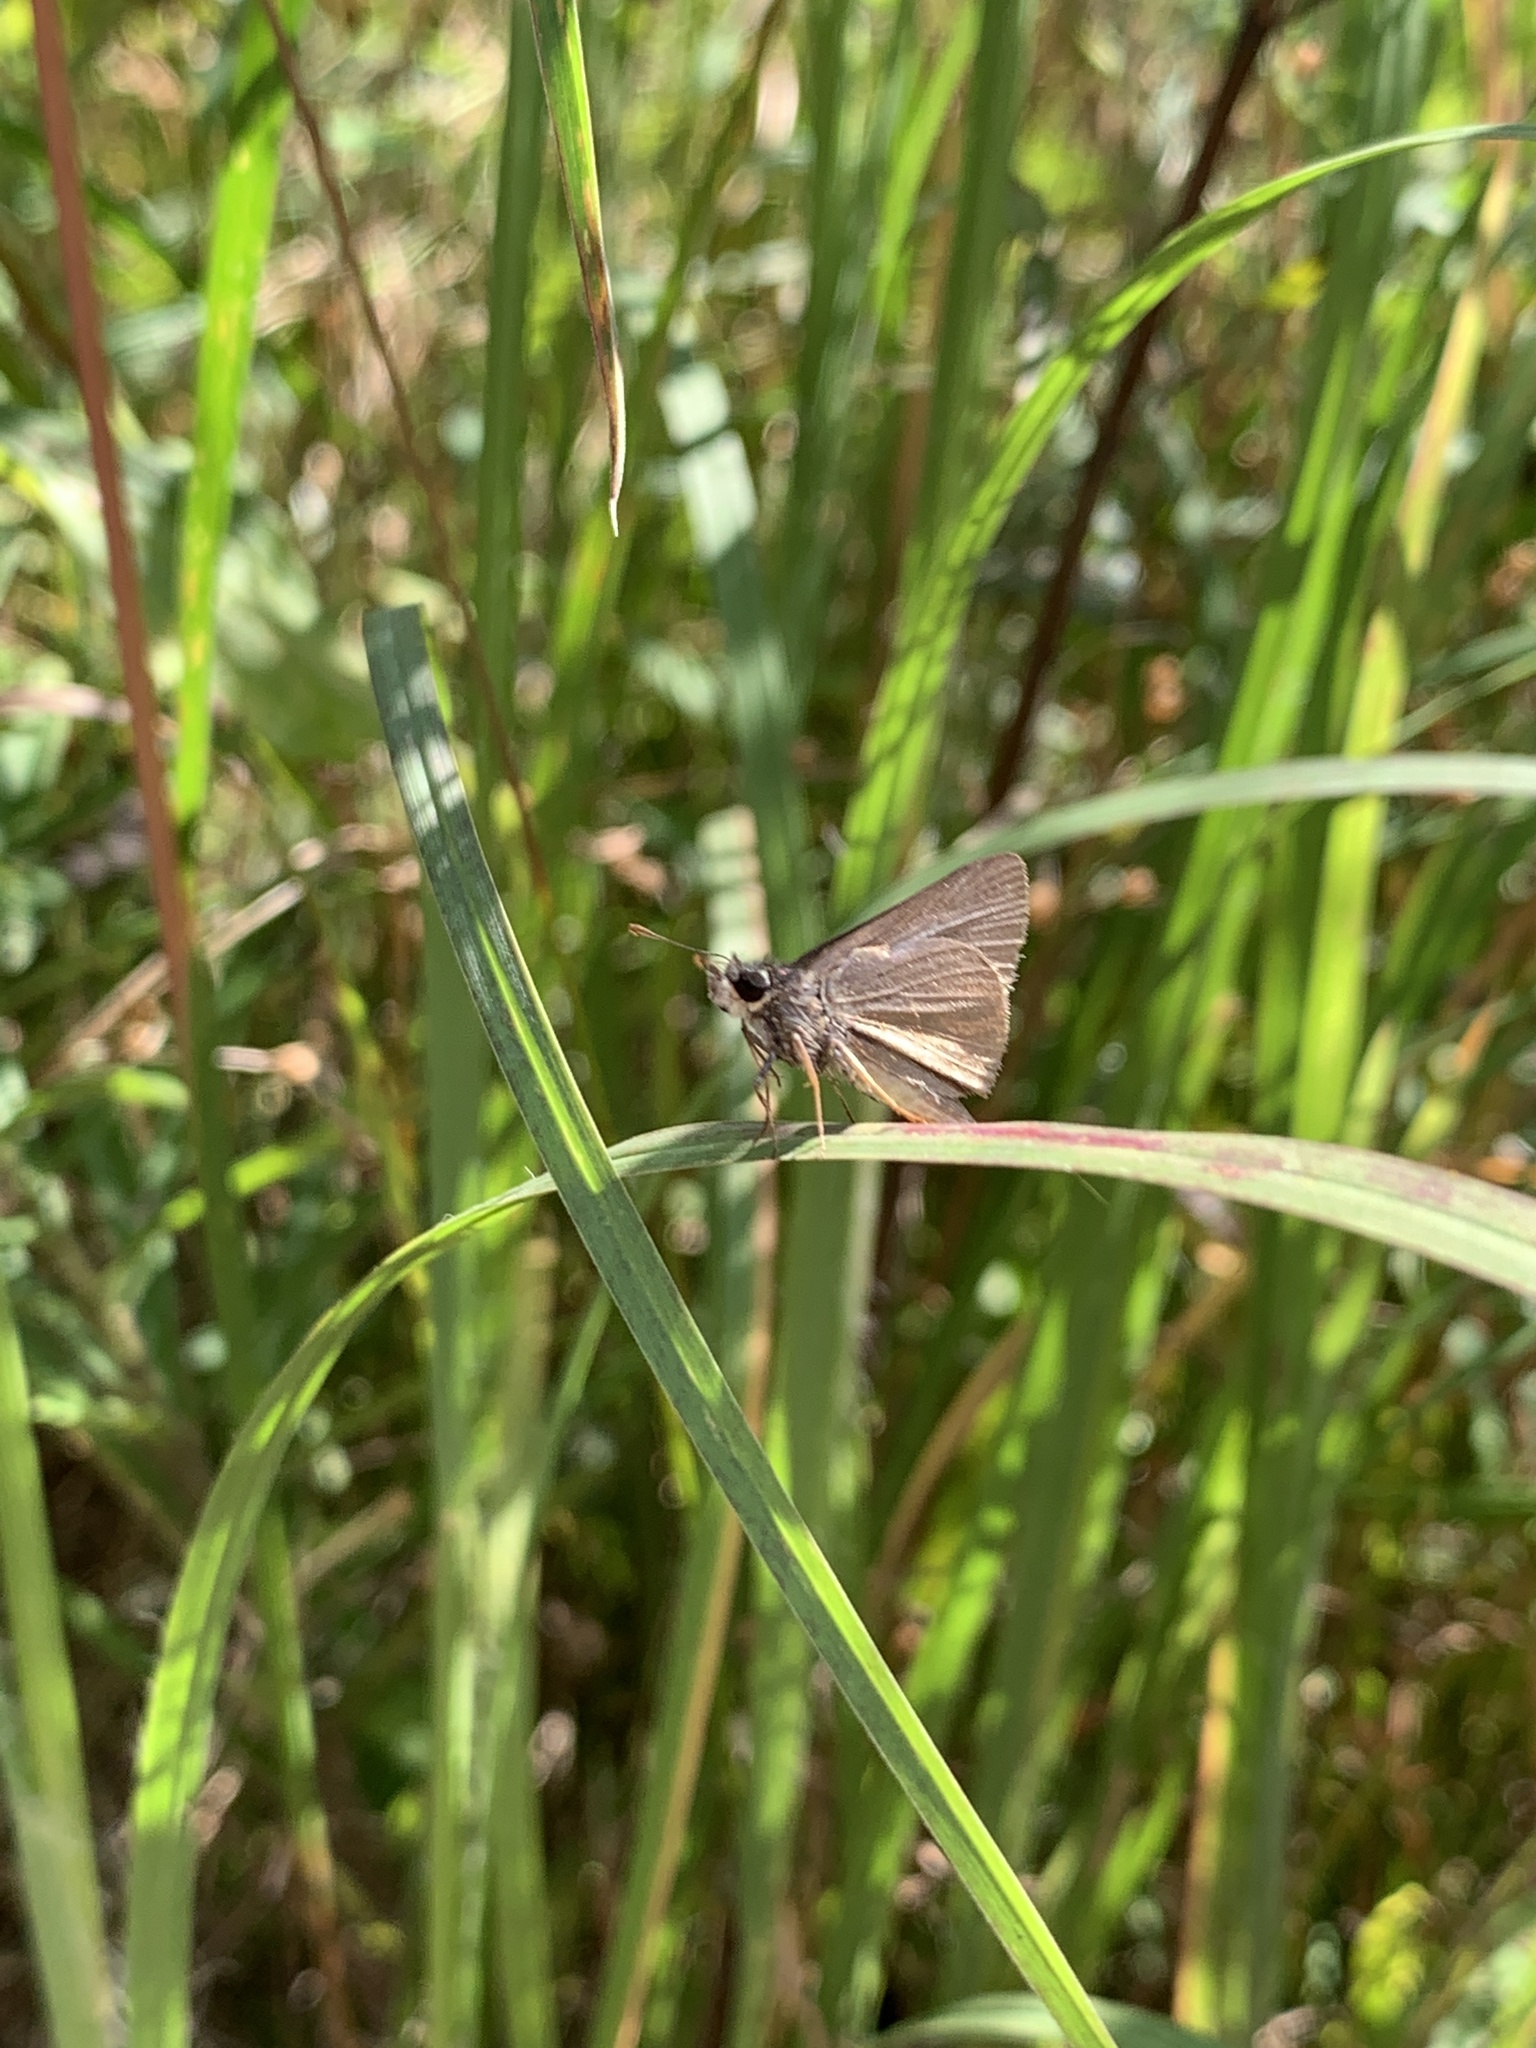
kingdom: Animalia
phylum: Arthropoda
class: Insecta
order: Lepidoptera
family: Hesperiidae
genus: Nastra
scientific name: Nastra lherminier
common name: Swarthy skipper
